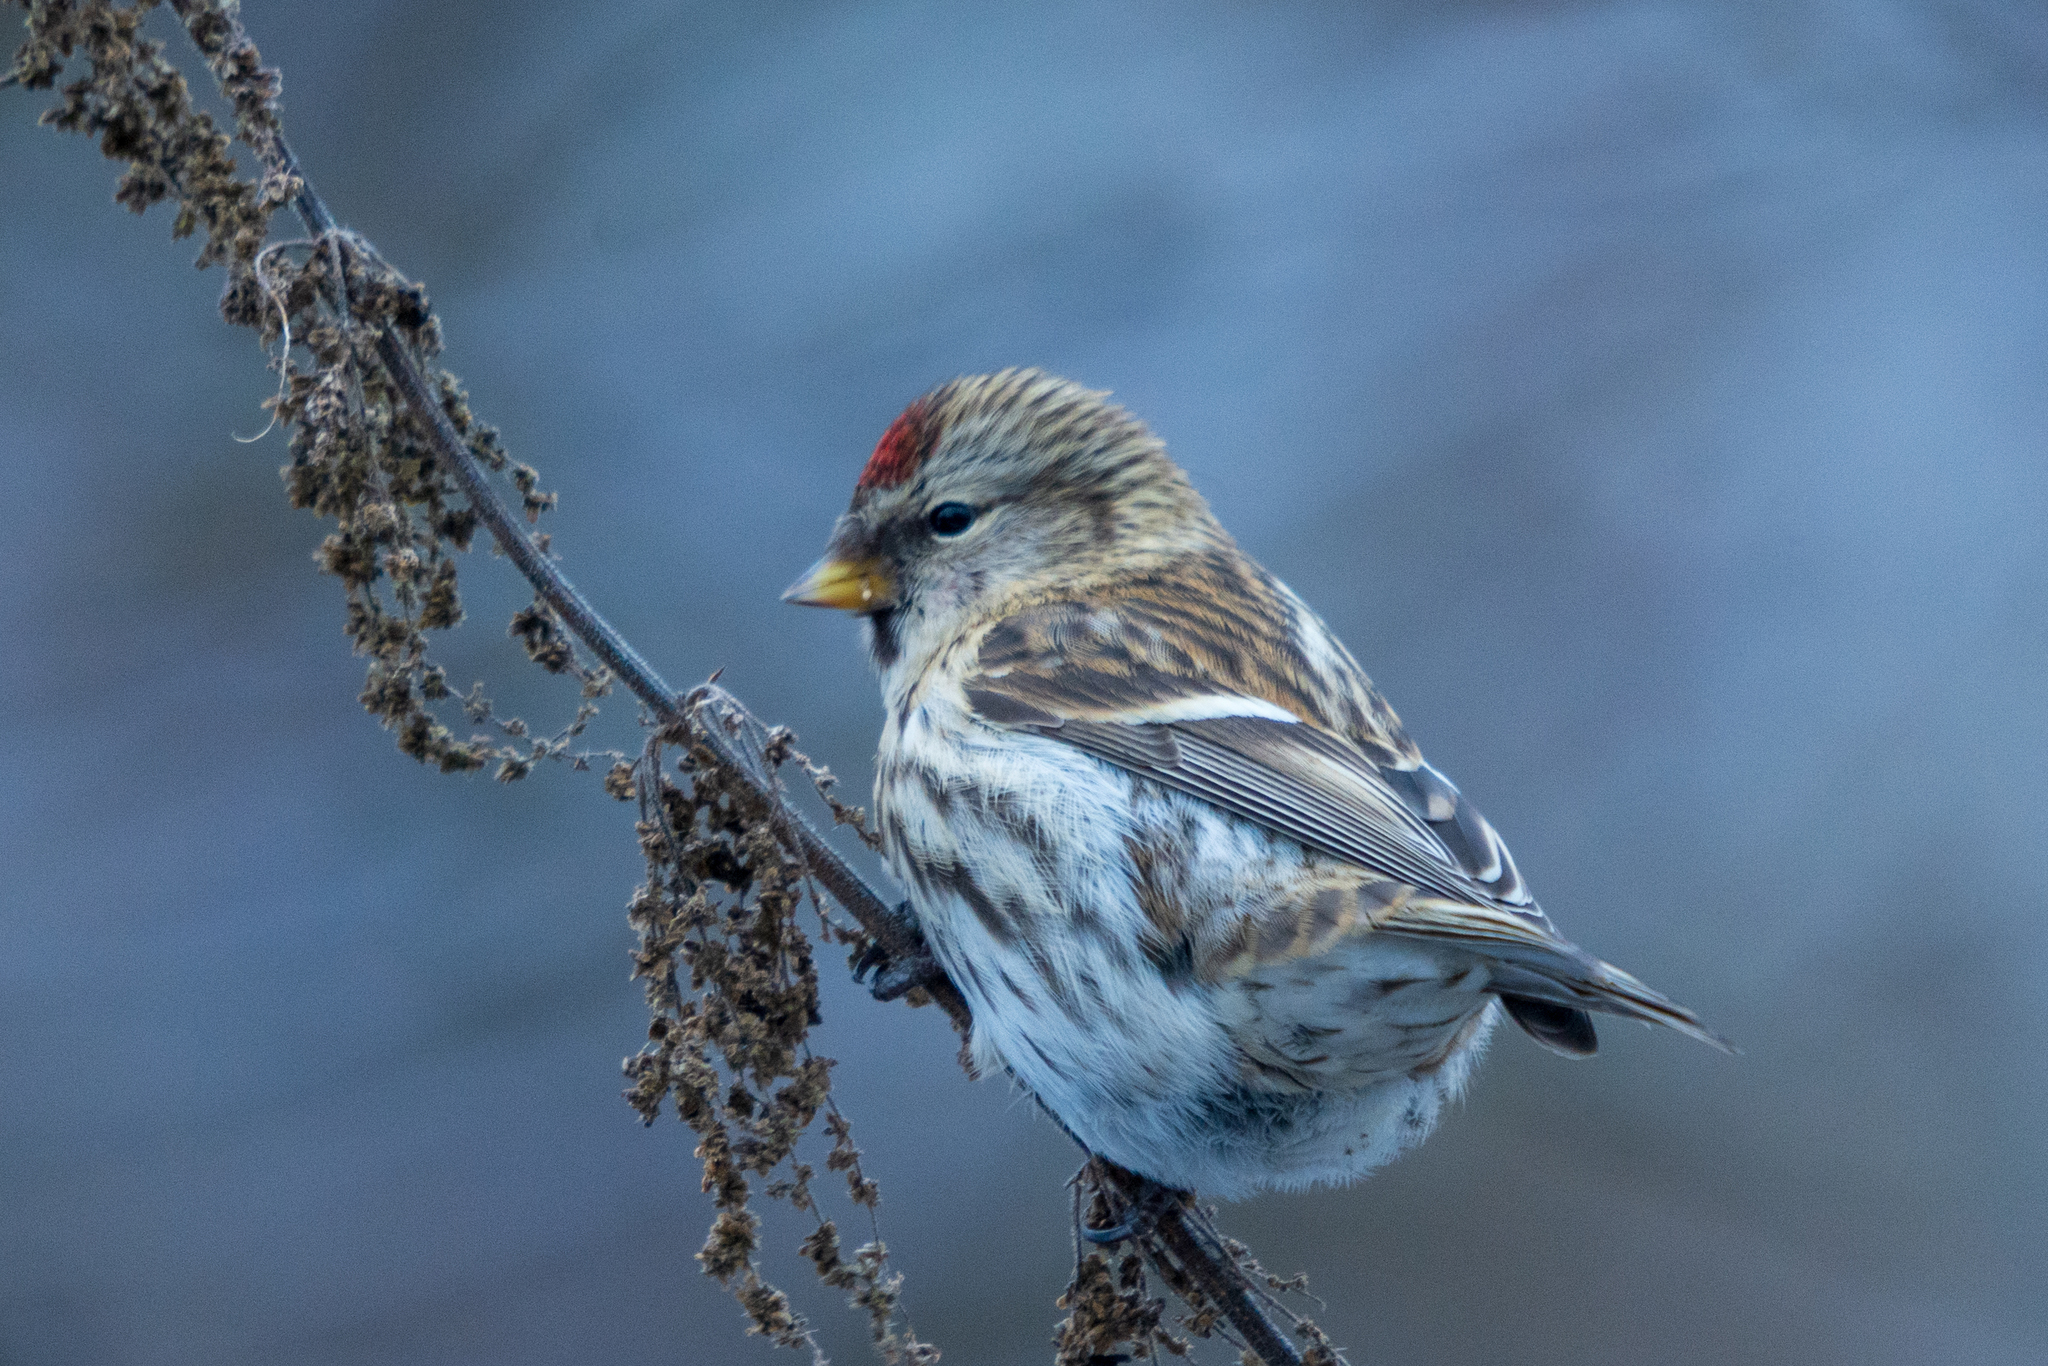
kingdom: Animalia
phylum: Chordata
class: Aves
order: Passeriformes
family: Fringillidae
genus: Acanthis
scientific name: Acanthis flammea
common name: Common redpoll
